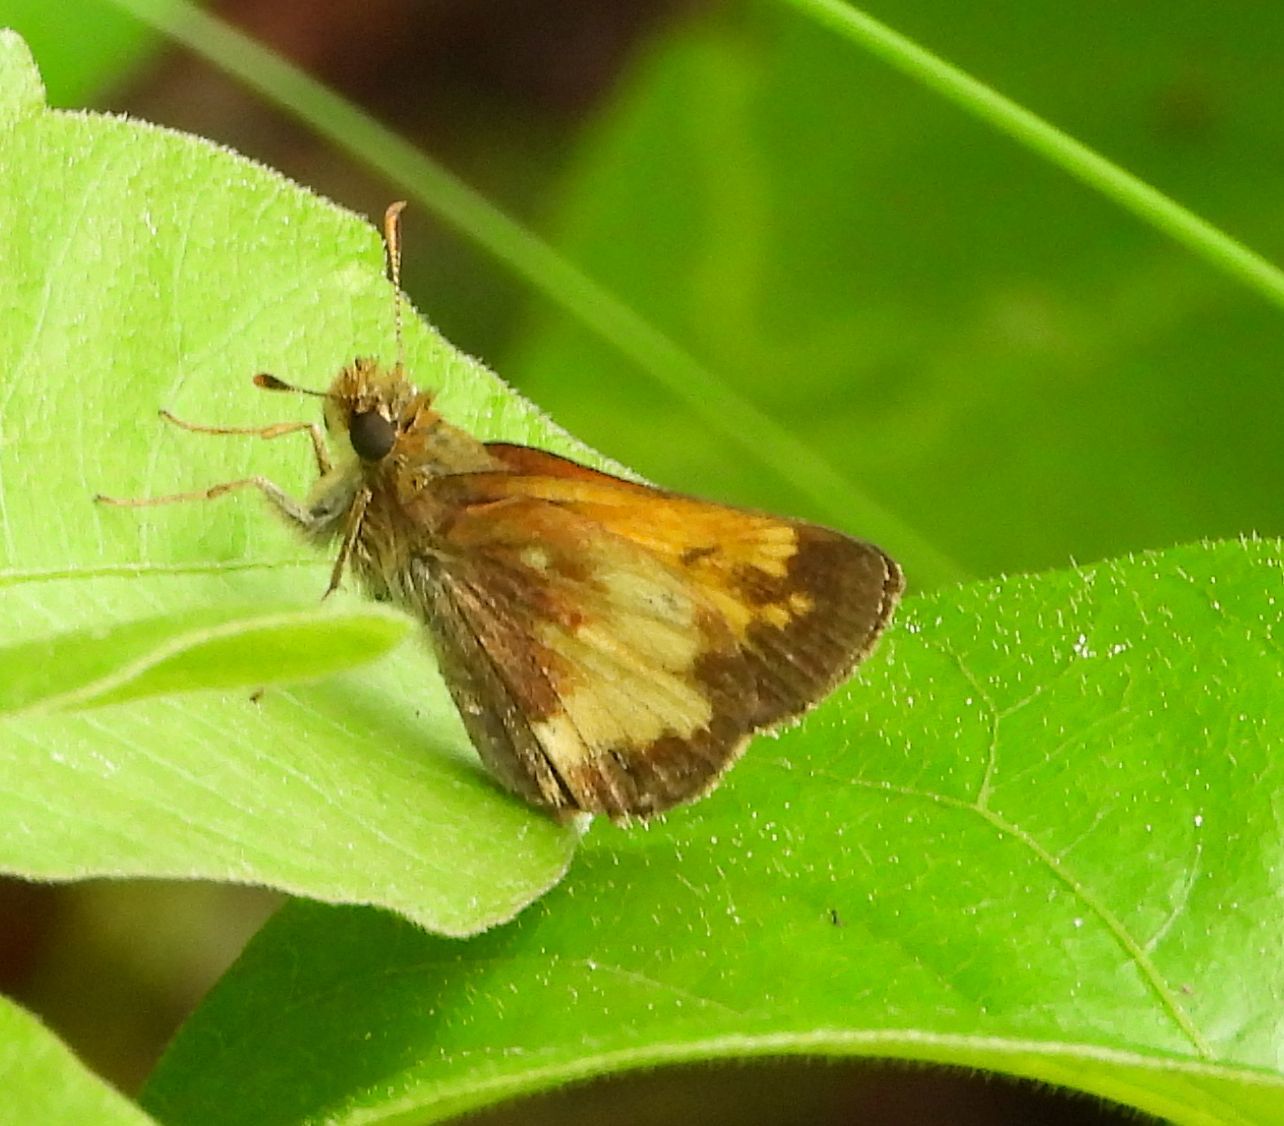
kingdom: Animalia
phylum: Arthropoda
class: Insecta
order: Lepidoptera
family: Hesperiidae
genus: Lon
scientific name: Lon hobomok
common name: Hobomok skipper
